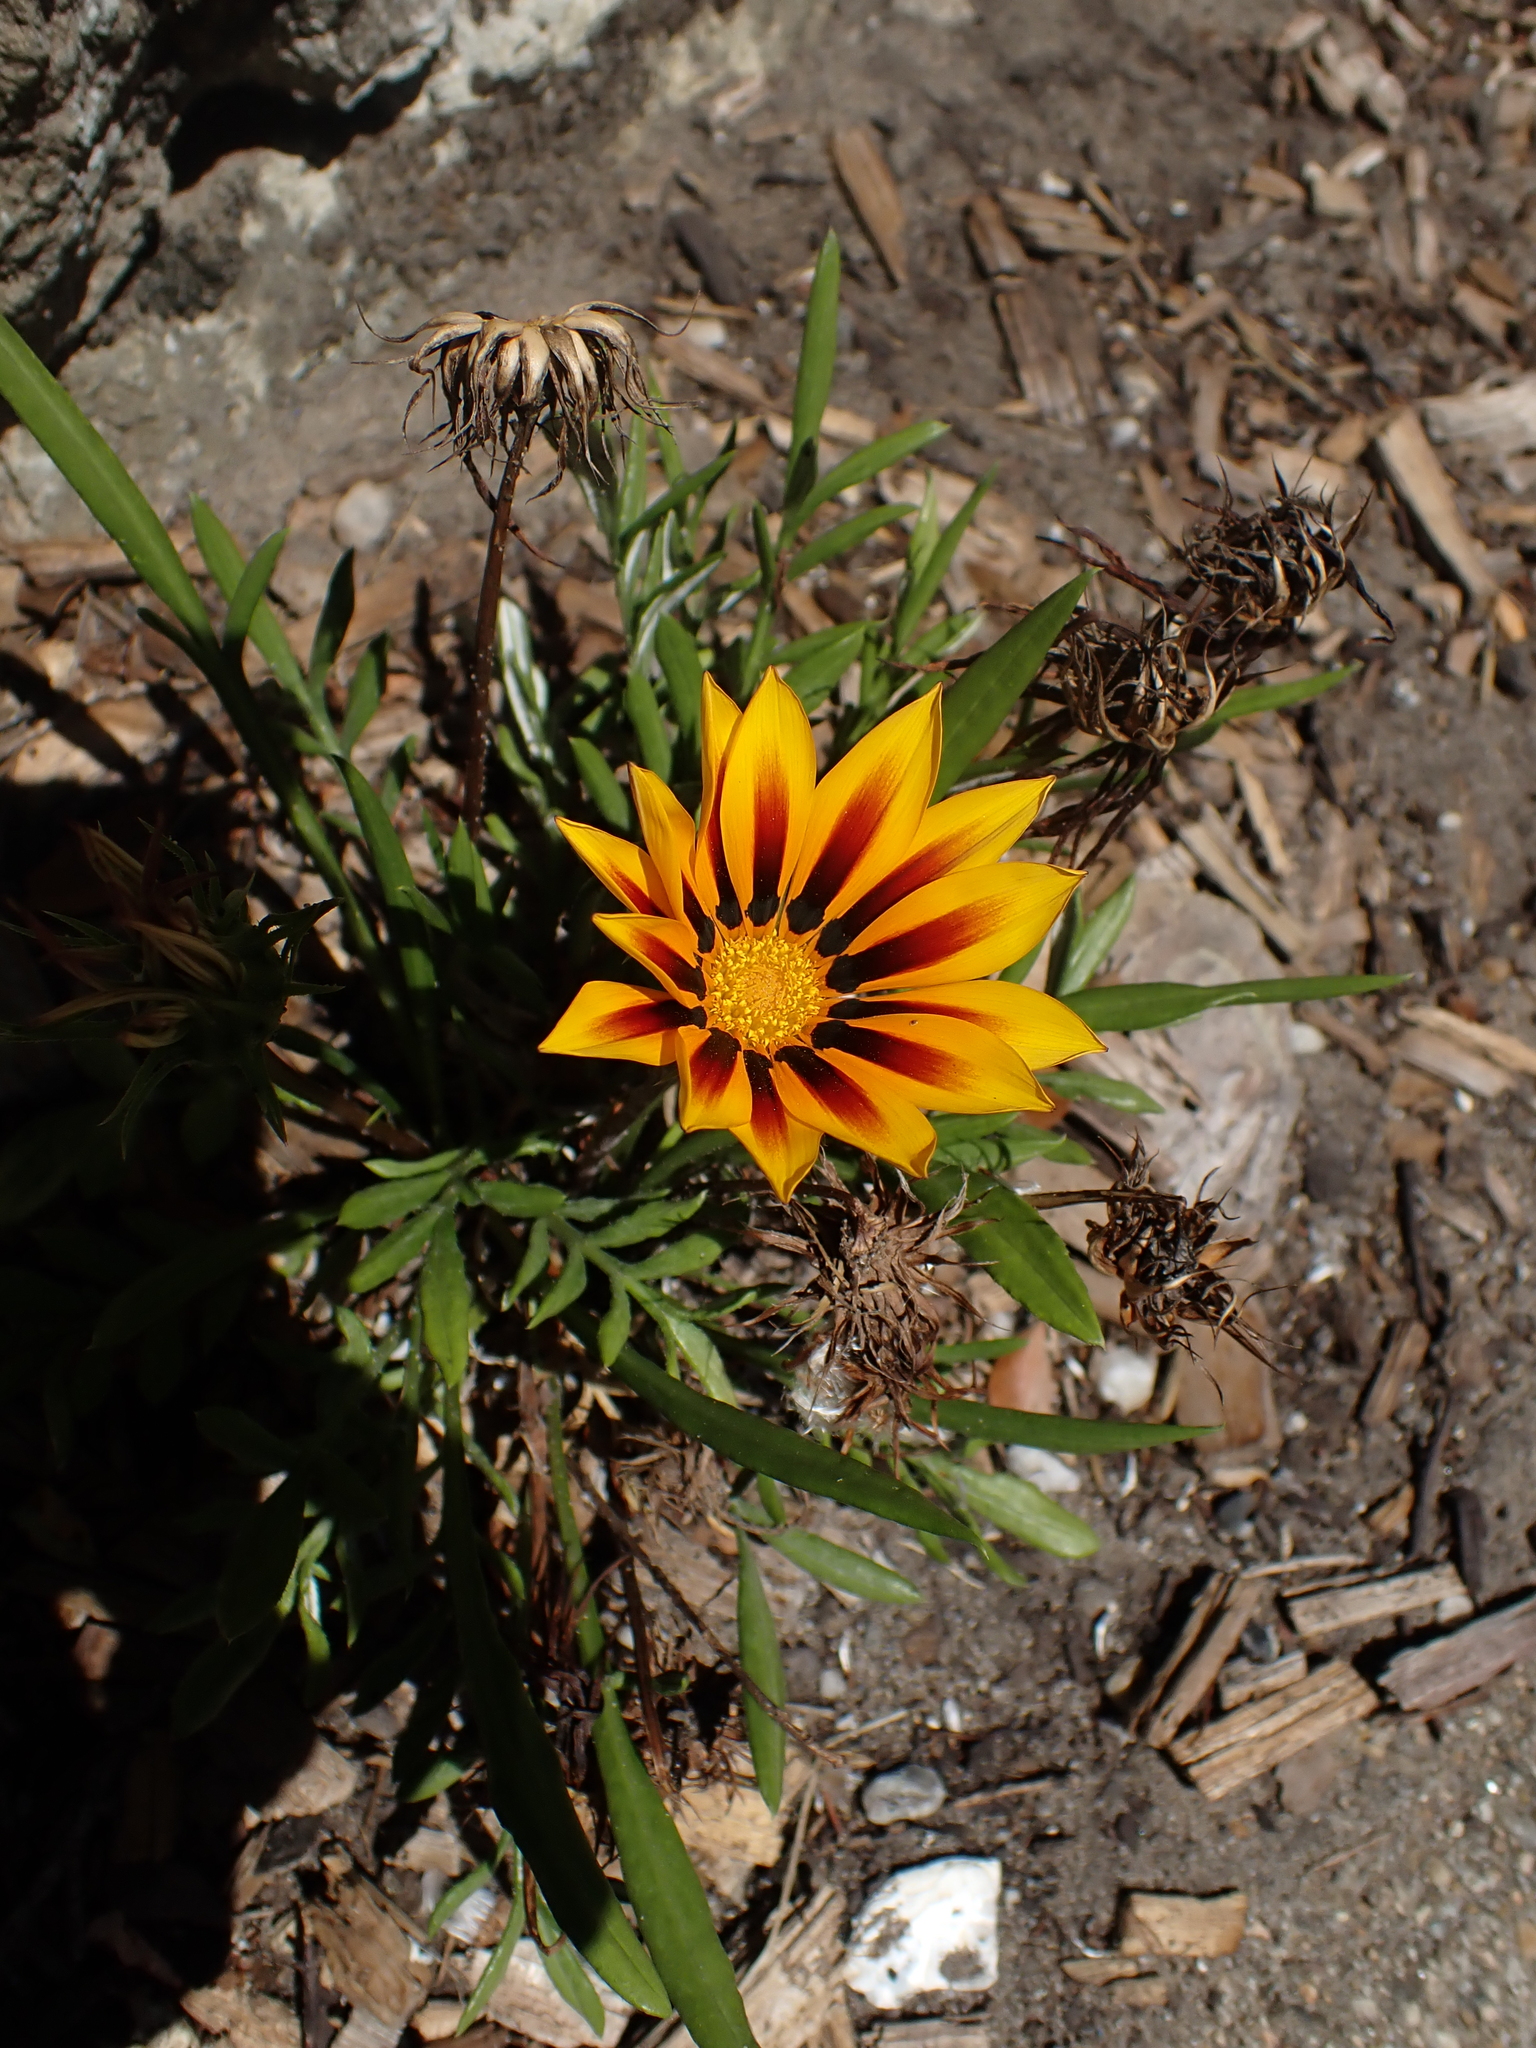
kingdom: Plantae
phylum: Tracheophyta
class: Magnoliopsida
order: Asterales
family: Asteraceae
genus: Gazania
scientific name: Gazania rigens
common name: Treasureflower
